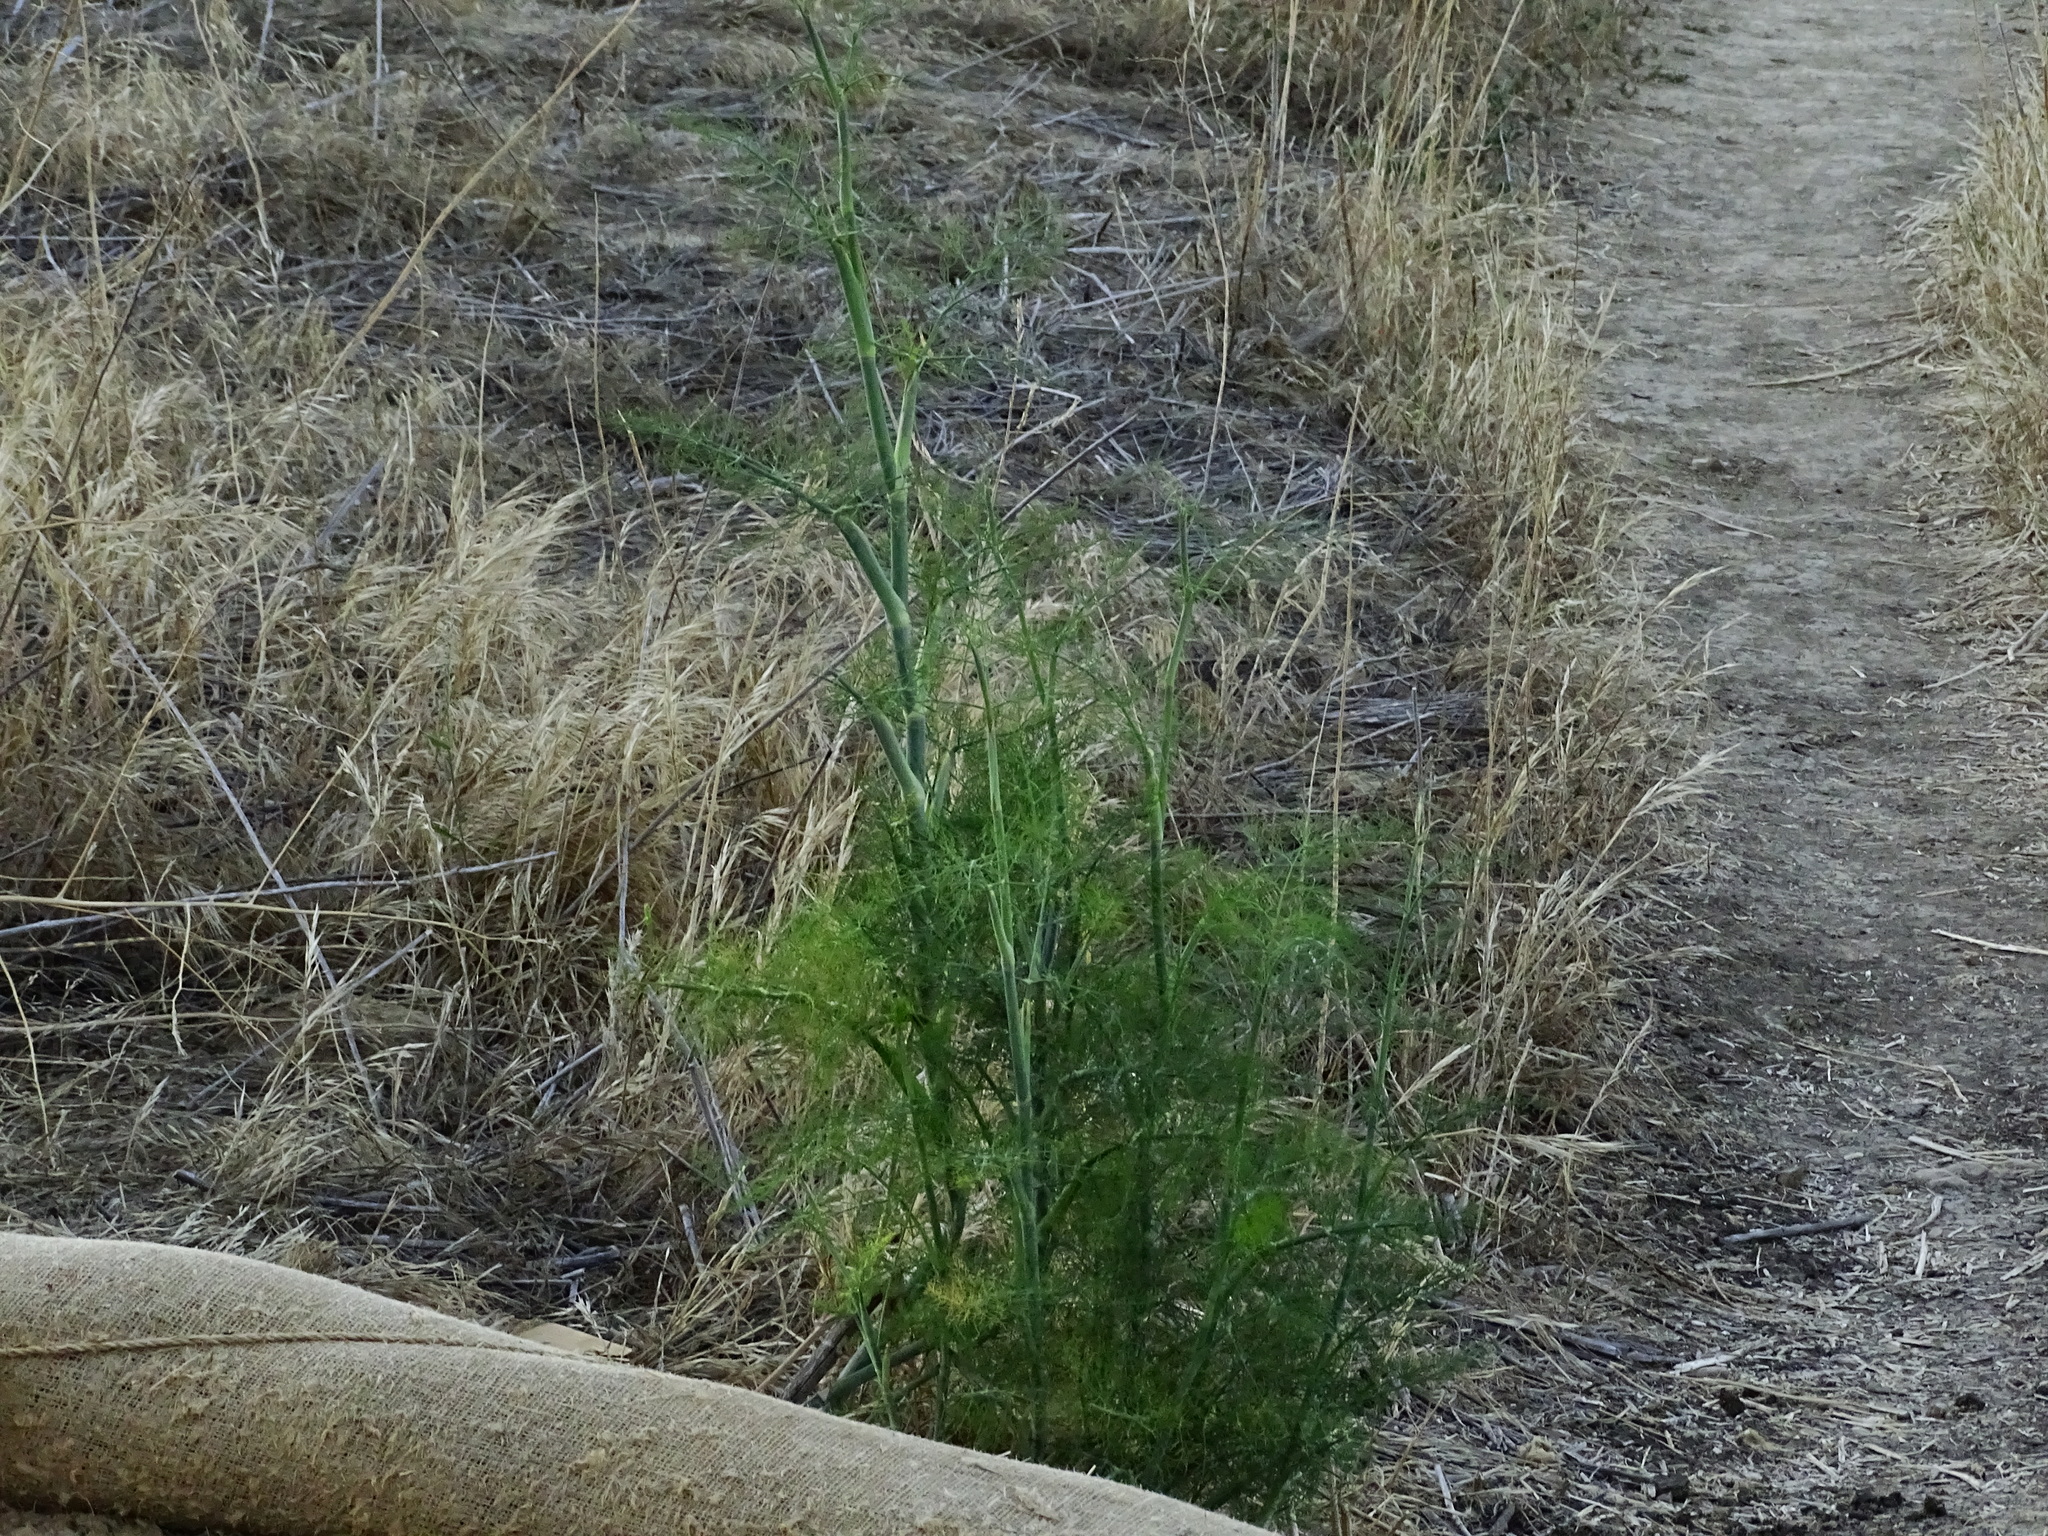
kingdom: Plantae
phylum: Tracheophyta
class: Magnoliopsida
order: Apiales
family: Apiaceae
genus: Foeniculum
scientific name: Foeniculum vulgare
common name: Fennel
